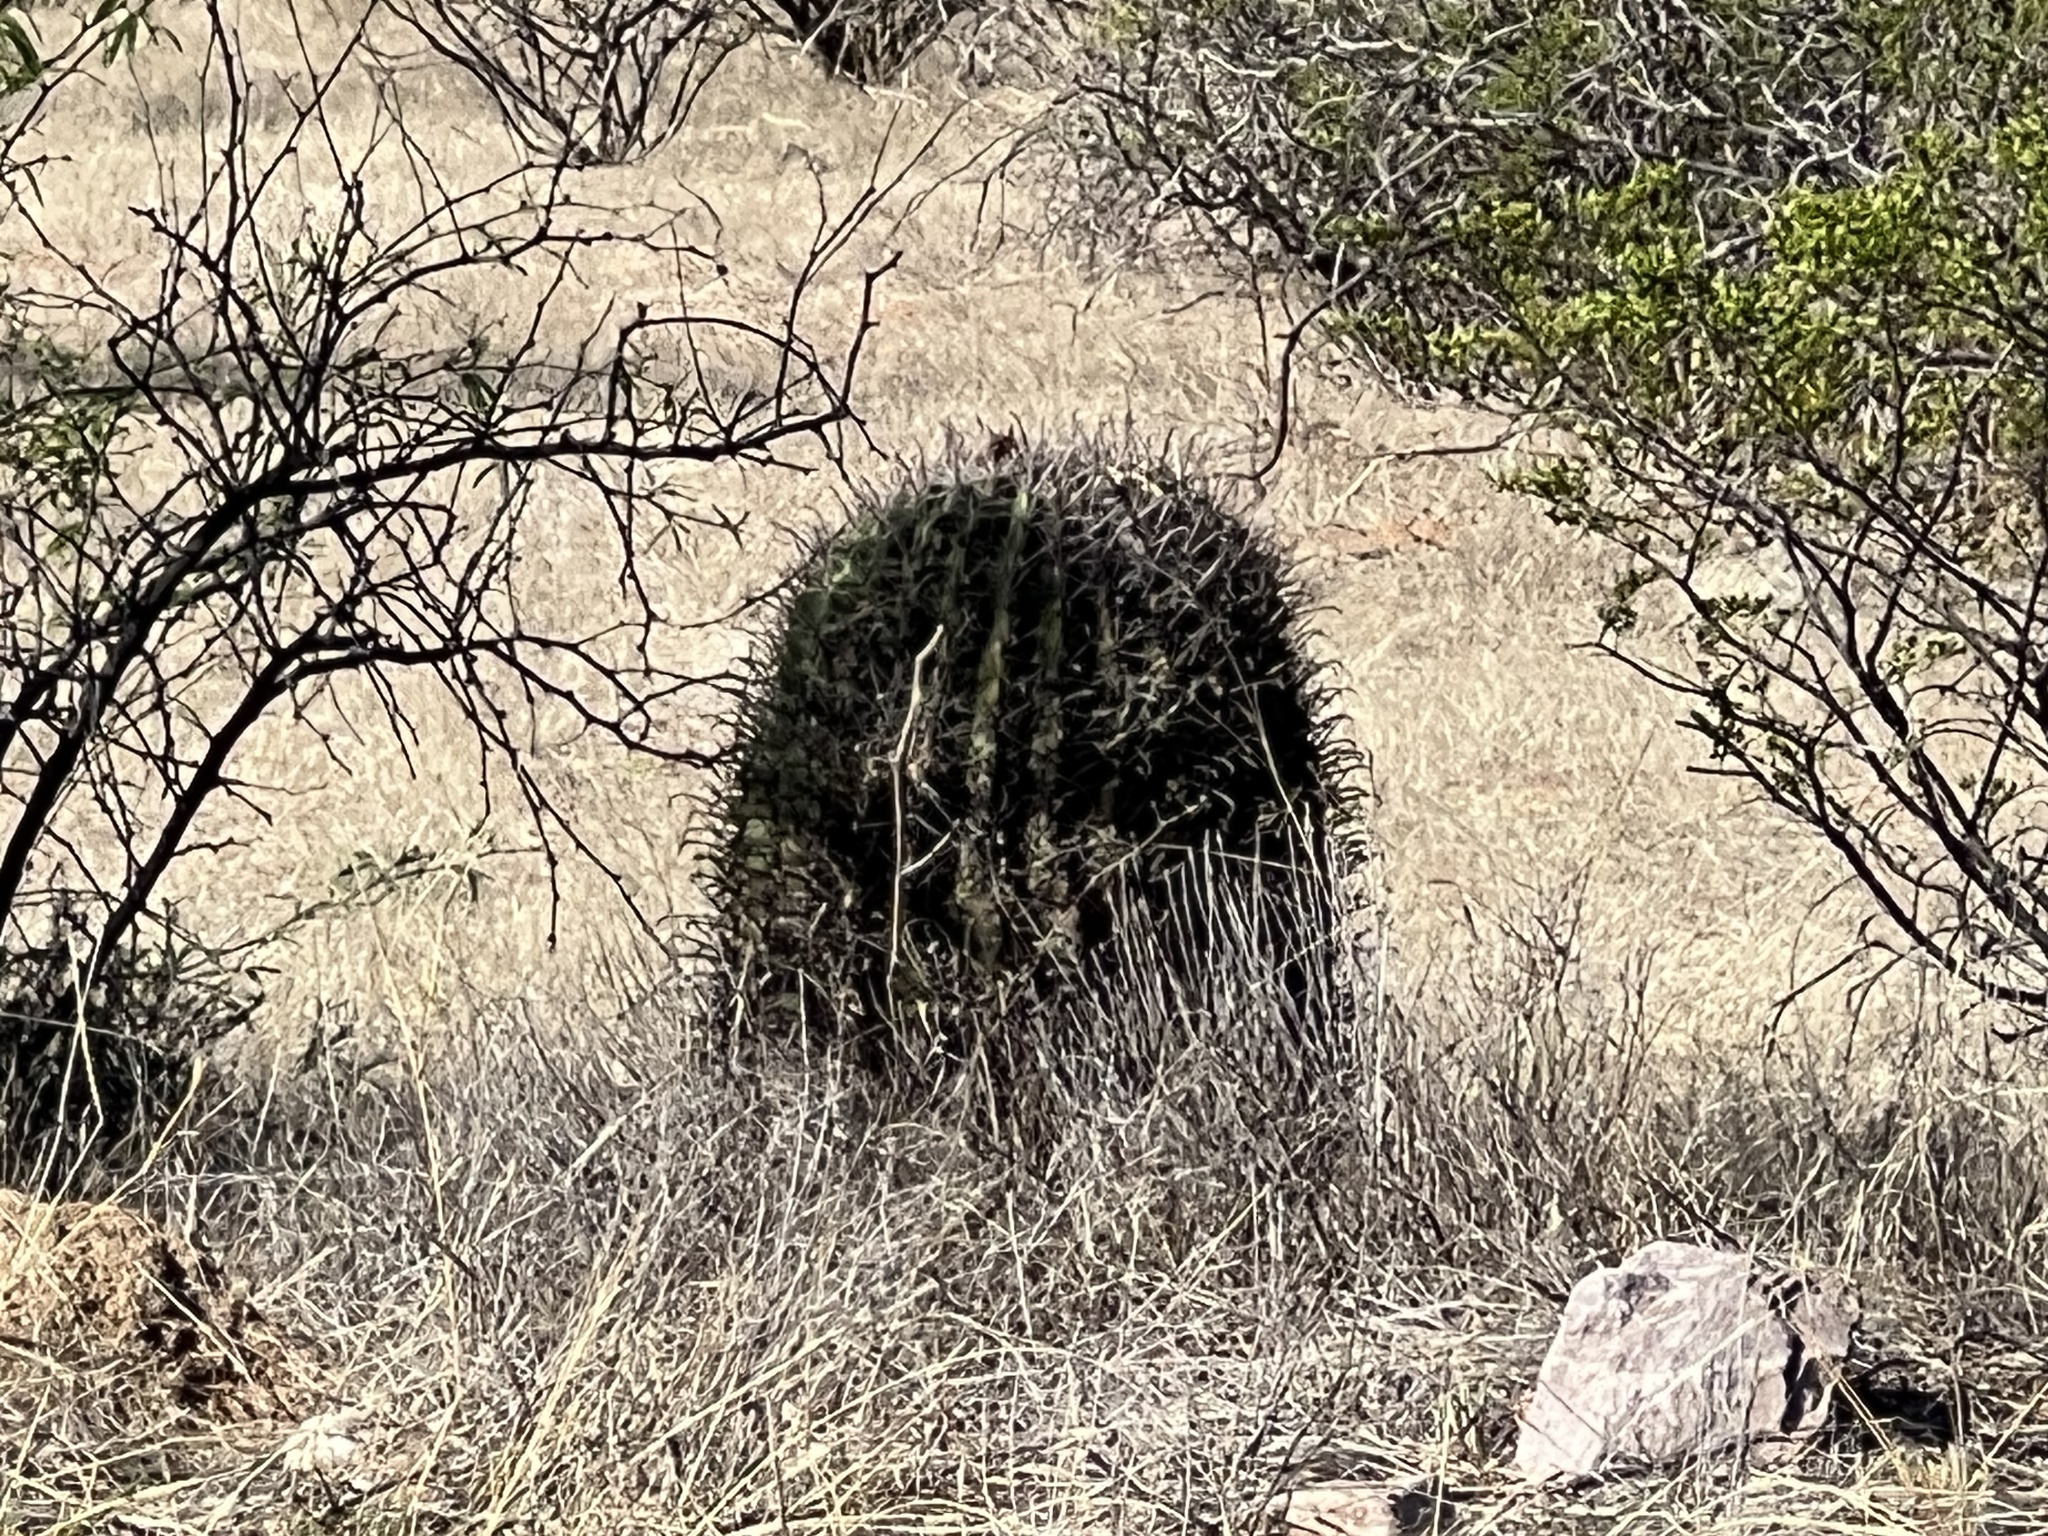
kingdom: Plantae
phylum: Tracheophyta
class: Magnoliopsida
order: Caryophyllales
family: Cactaceae
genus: Ferocactus
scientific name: Ferocactus wislizeni
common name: Candy barrel cactus
